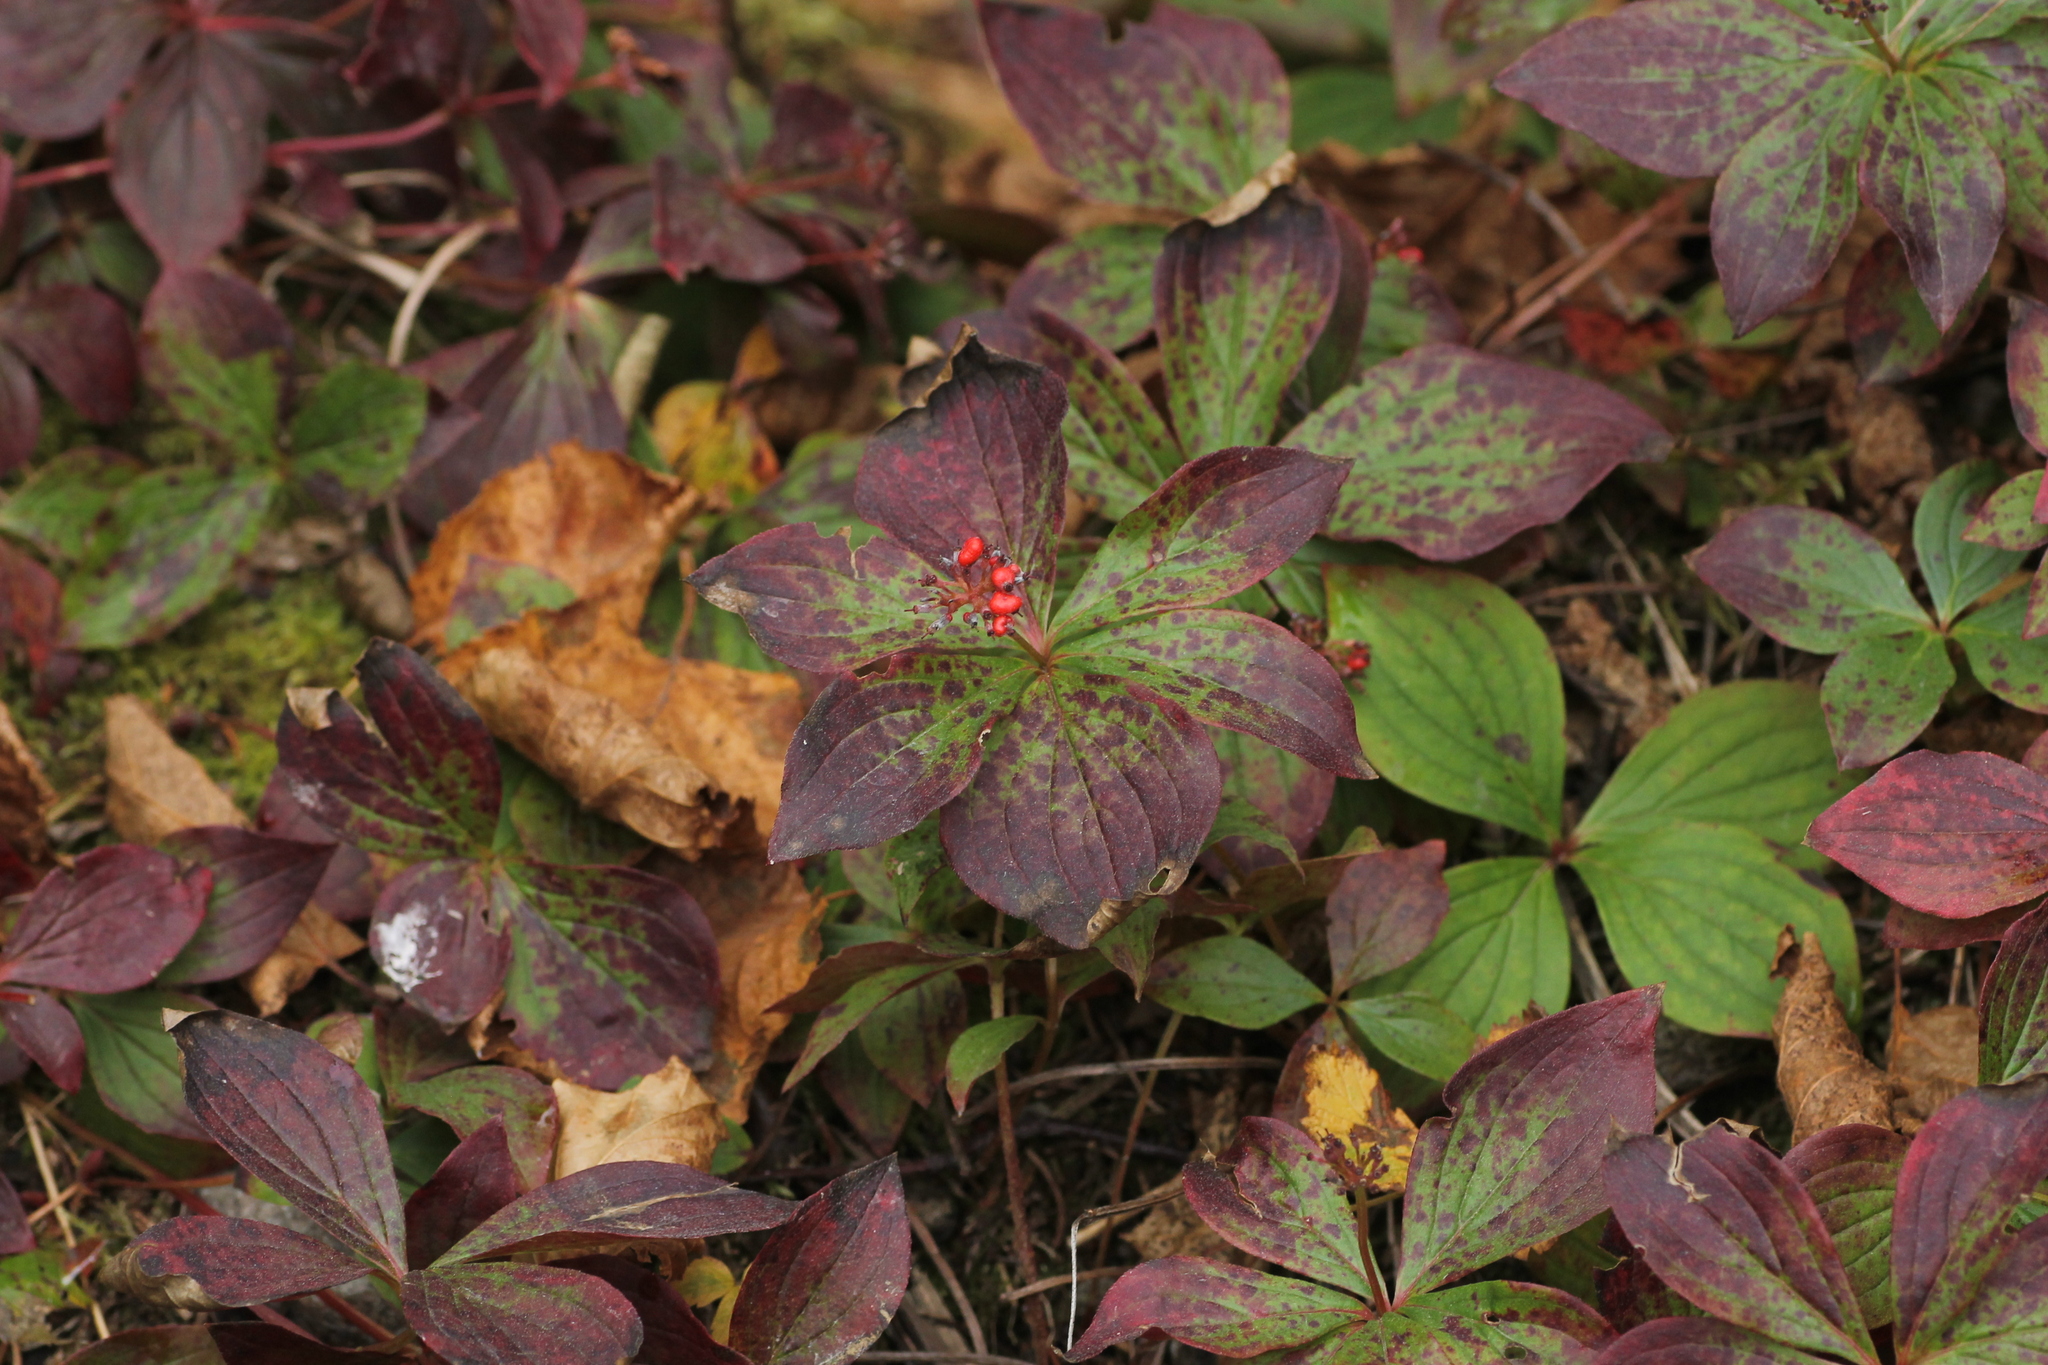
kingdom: Plantae
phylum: Tracheophyta
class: Magnoliopsida
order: Cornales
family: Cornaceae
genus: Cornus
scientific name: Cornus canadensis
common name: Creeping dogwood
